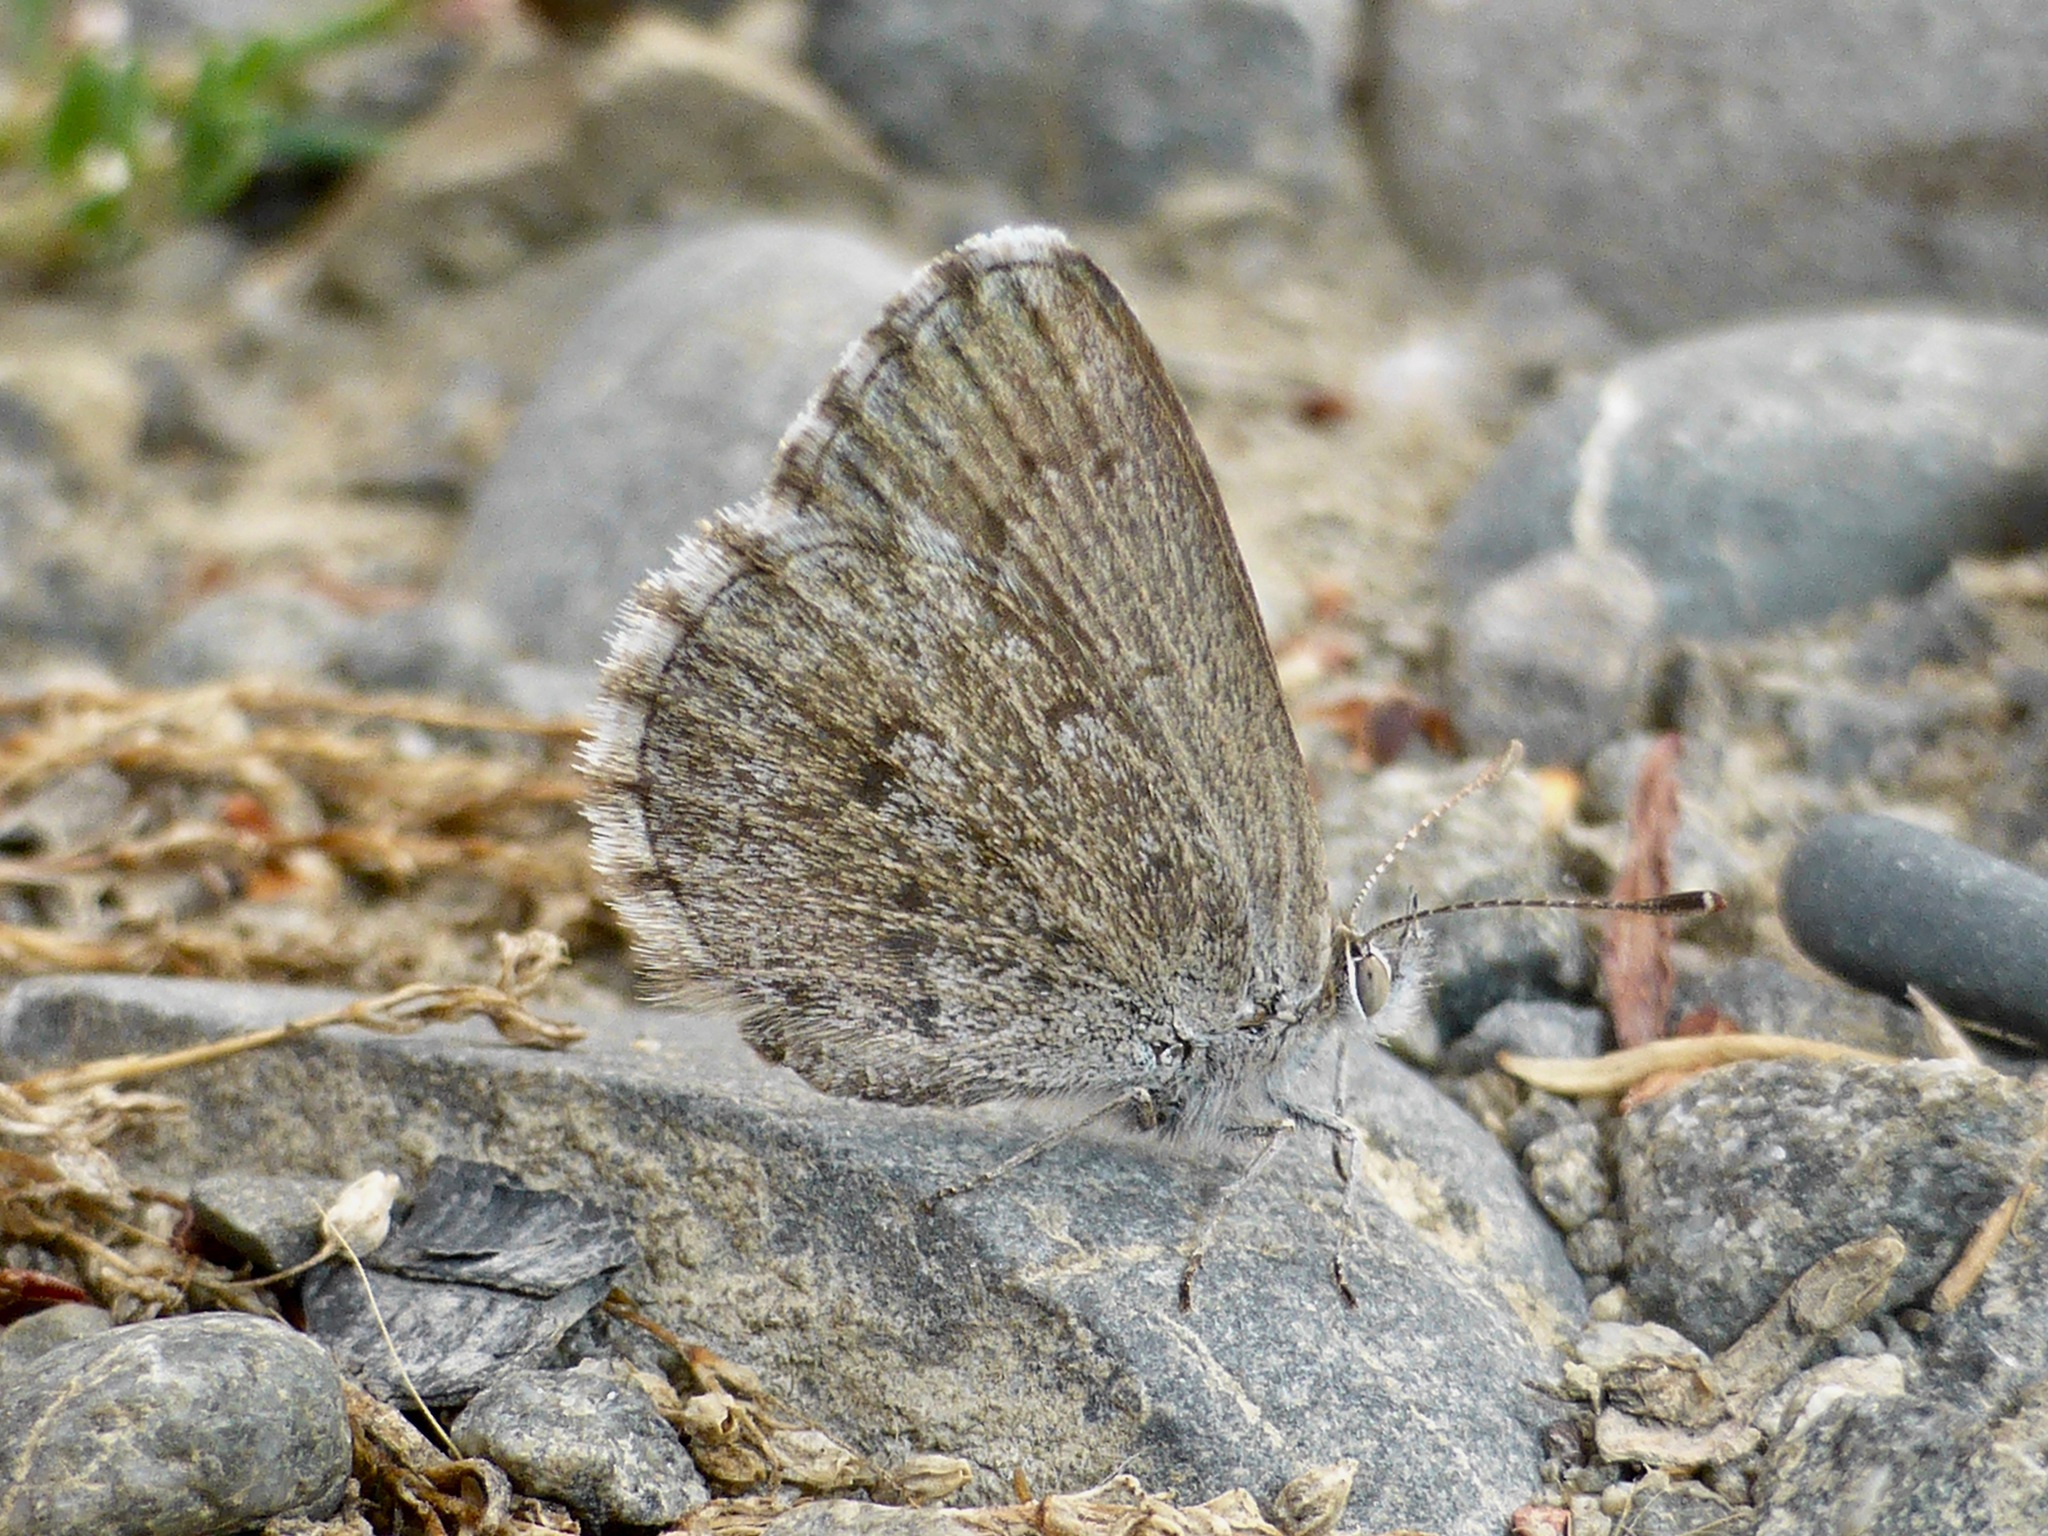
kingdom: Animalia
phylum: Arthropoda
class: Insecta
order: Lepidoptera
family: Lycaenidae
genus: Zizina
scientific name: Zizina oxleyi
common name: Southern blue
